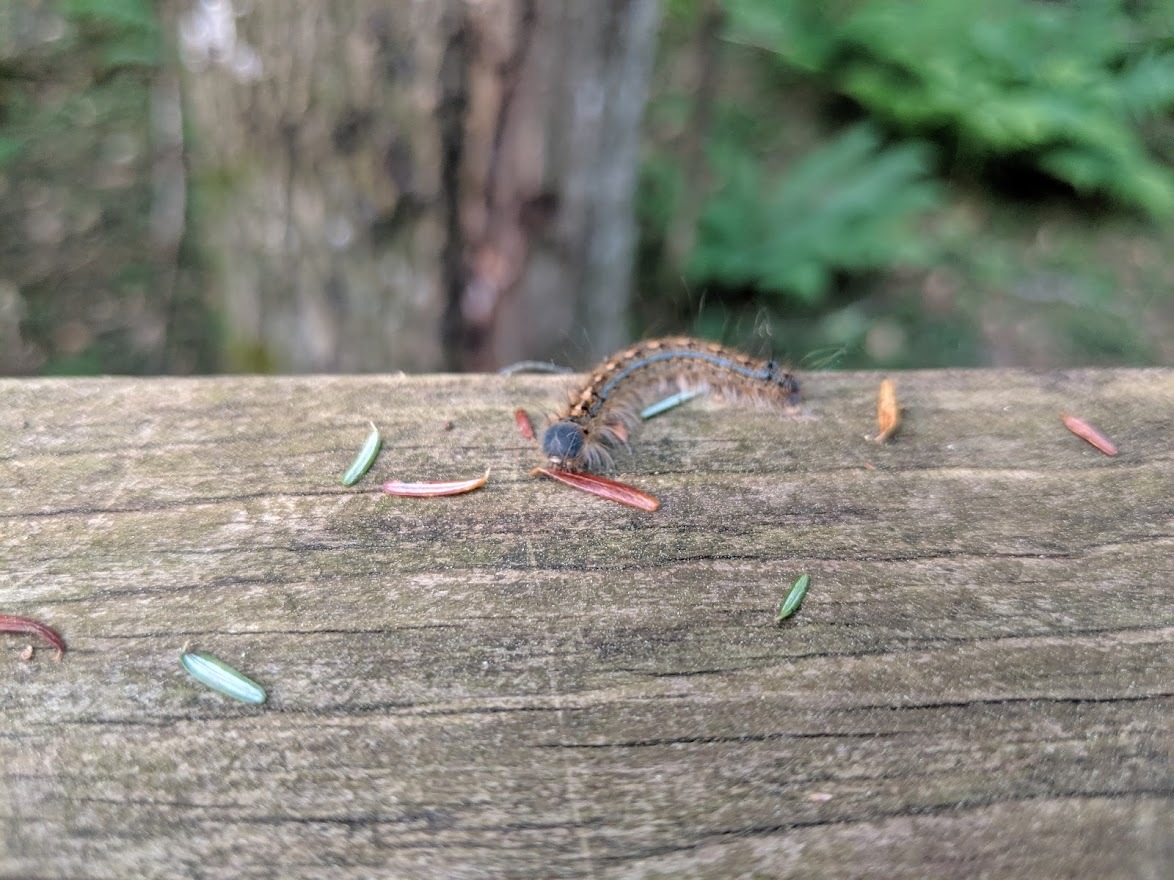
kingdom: Animalia
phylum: Arthropoda
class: Insecta
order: Lepidoptera
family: Lasiocampidae
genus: Malacosoma
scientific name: Malacosoma disstria
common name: Forest tent caterpillar
